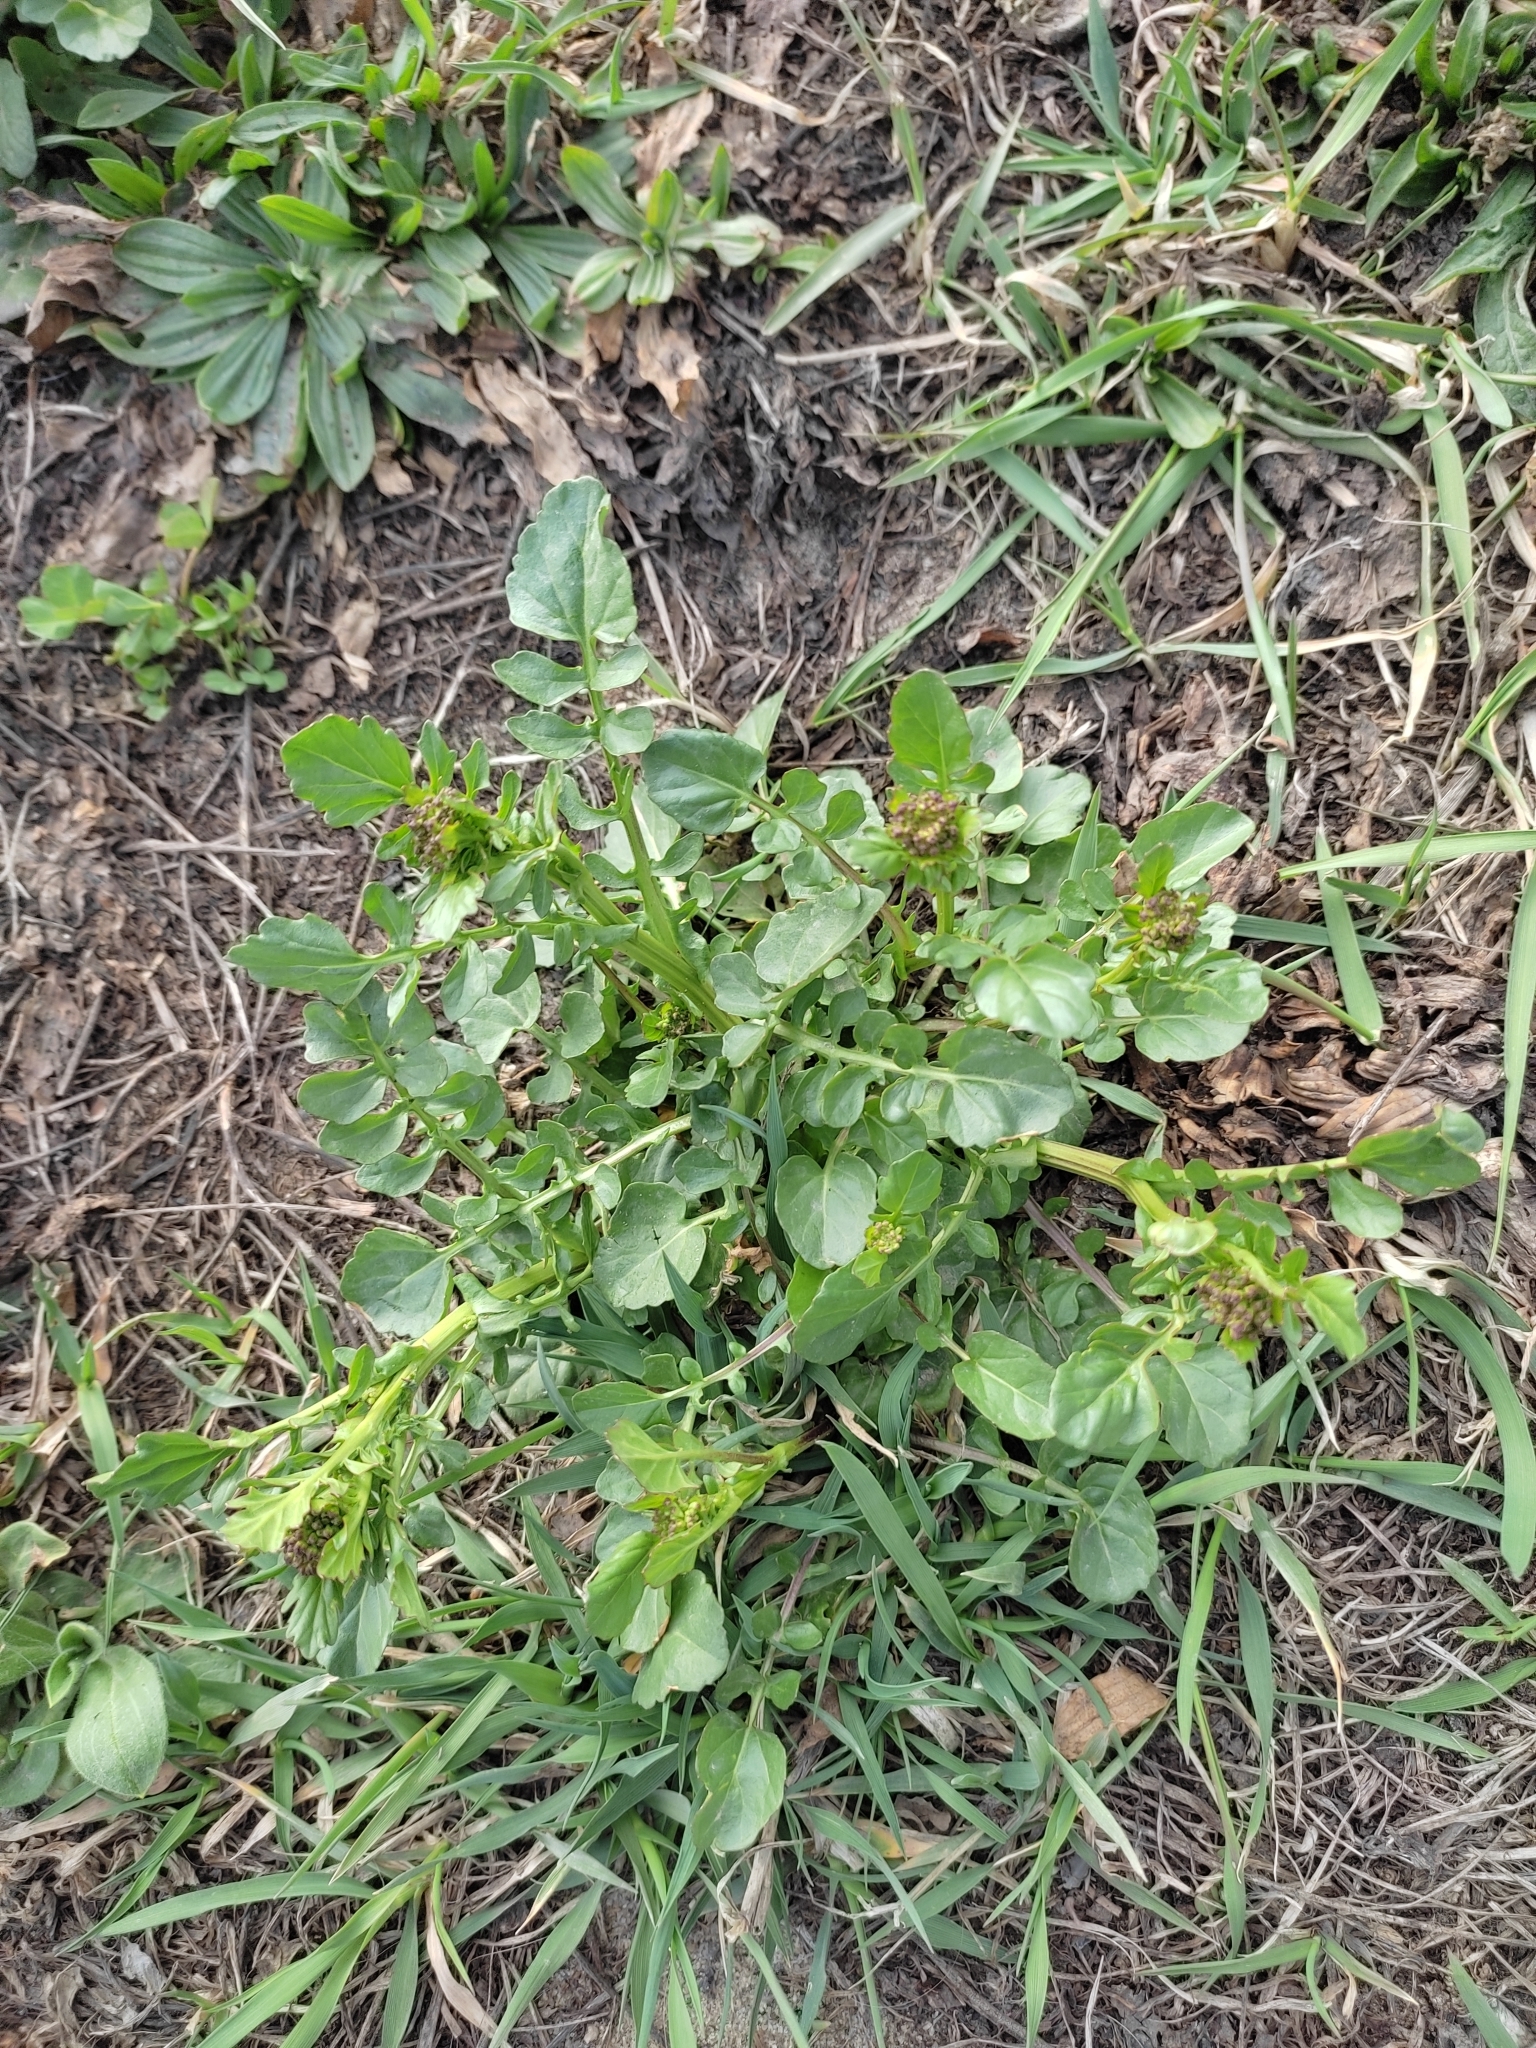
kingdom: Plantae
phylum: Tracheophyta
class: Magnoliopsida
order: Brassicales
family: Brassicaceae
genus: Barbarea
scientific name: Barbarea vulgaris
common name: Cressy-greens
